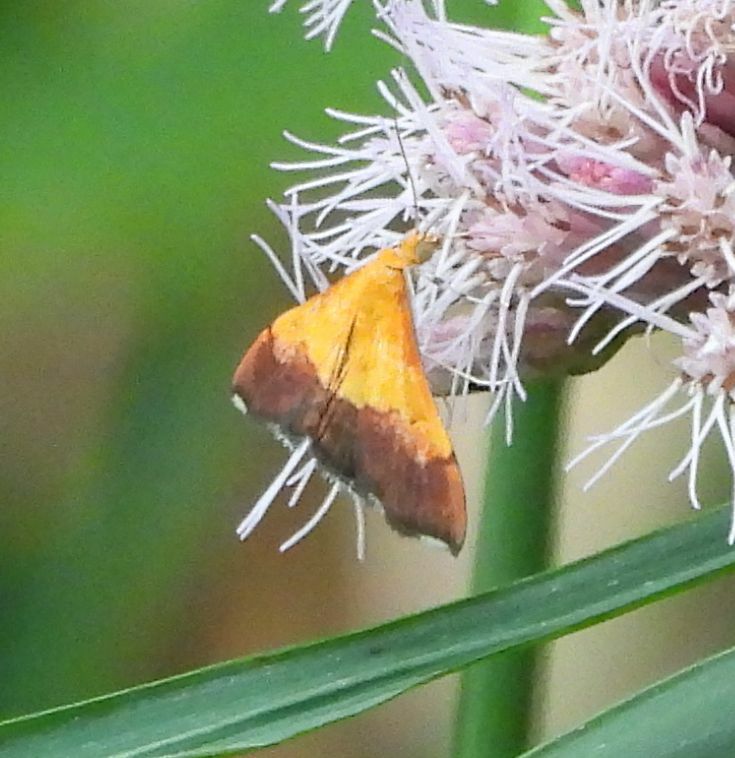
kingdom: Animalia
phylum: Arthropoda
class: Insecta
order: Lepidoptera
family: Crambidae
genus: Pyrausta
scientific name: Pyrausta bicoloralis
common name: Bicolored pyrausta moth
